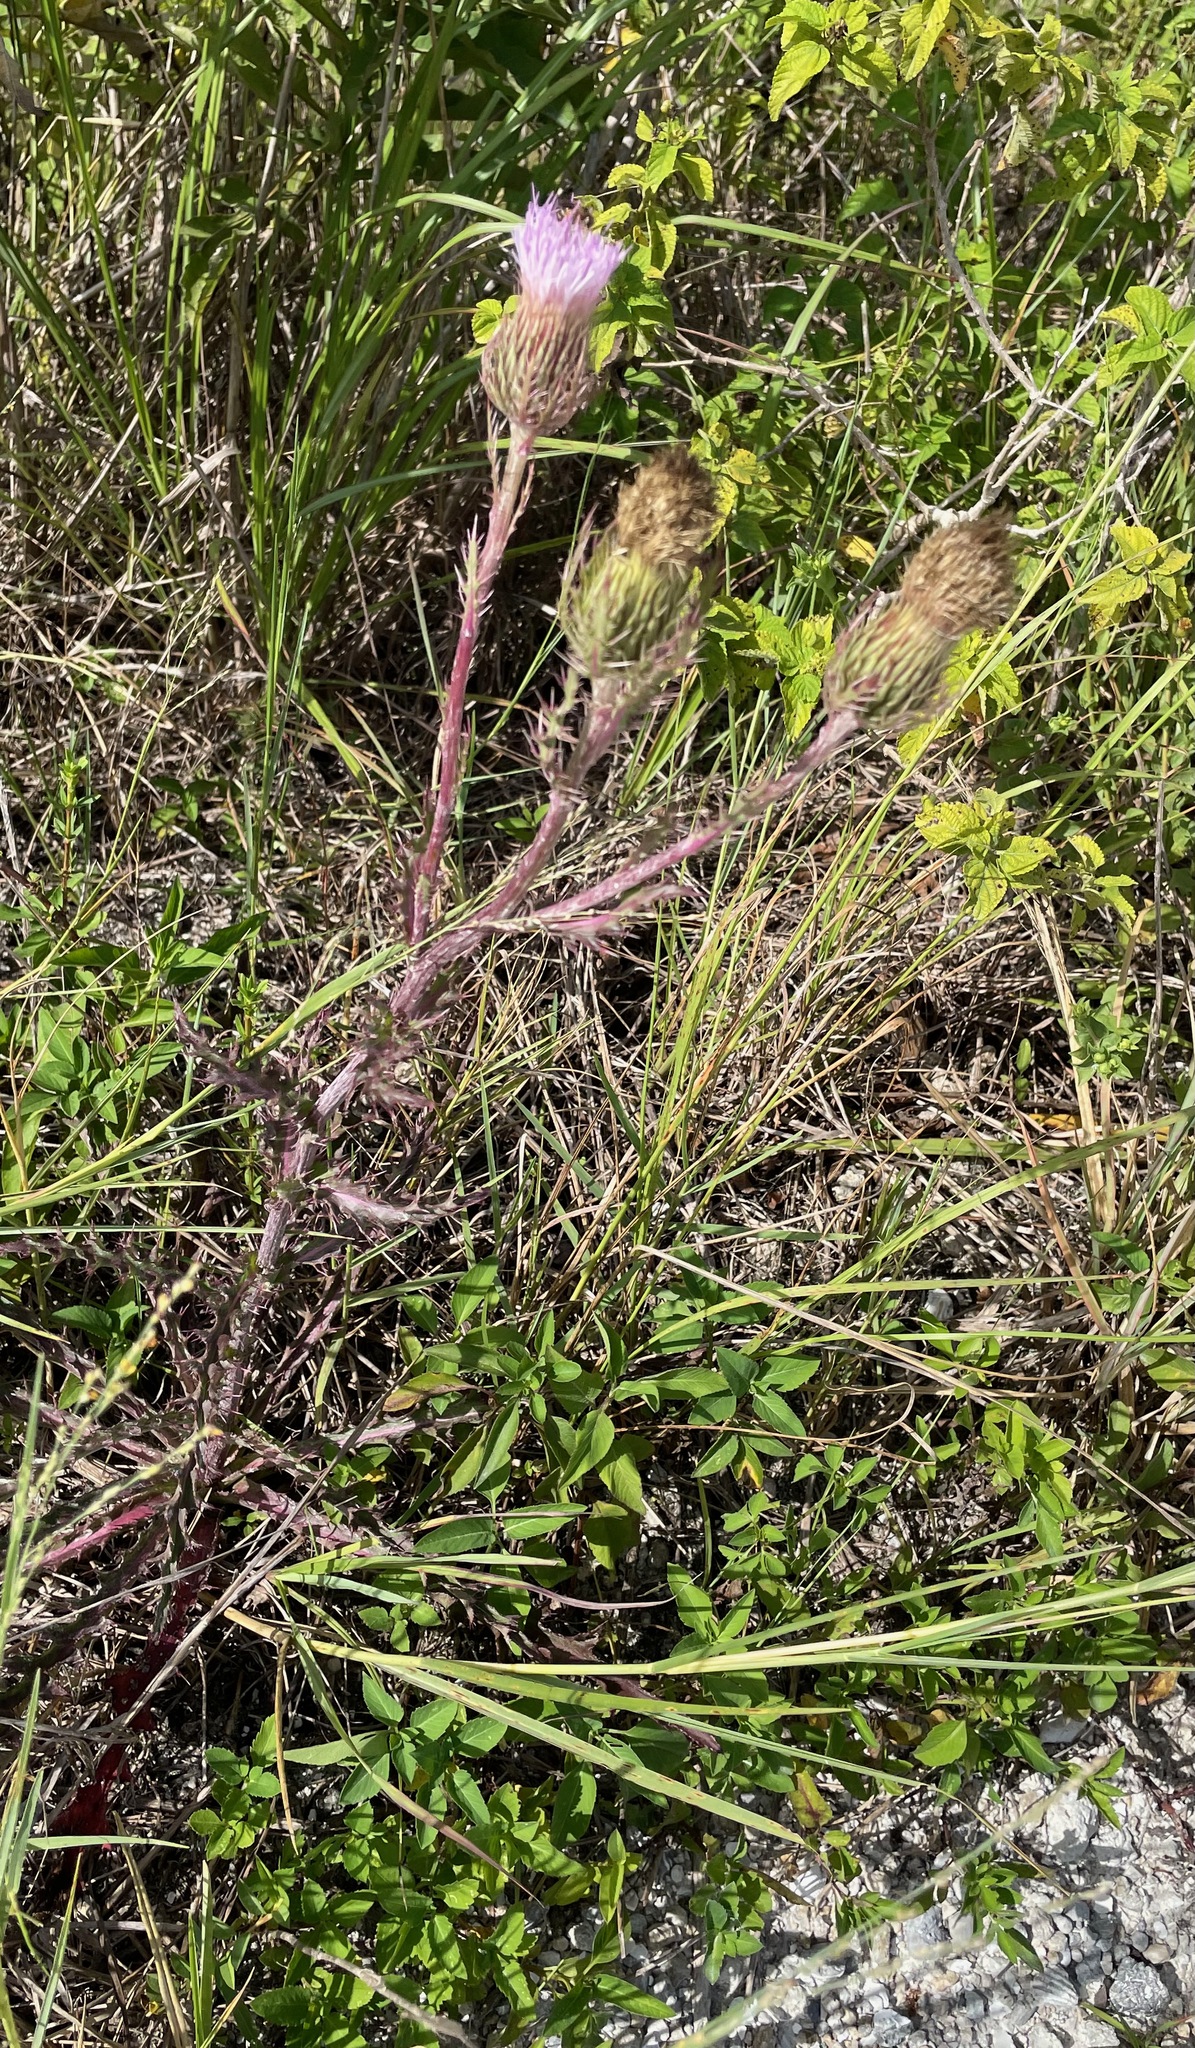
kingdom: Plantae
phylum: Tracheophyta
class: Magnoliopsida
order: Asterales
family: Asteraceae
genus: Cirsium
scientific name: Cirsium horridulum
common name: Bristly thistle
